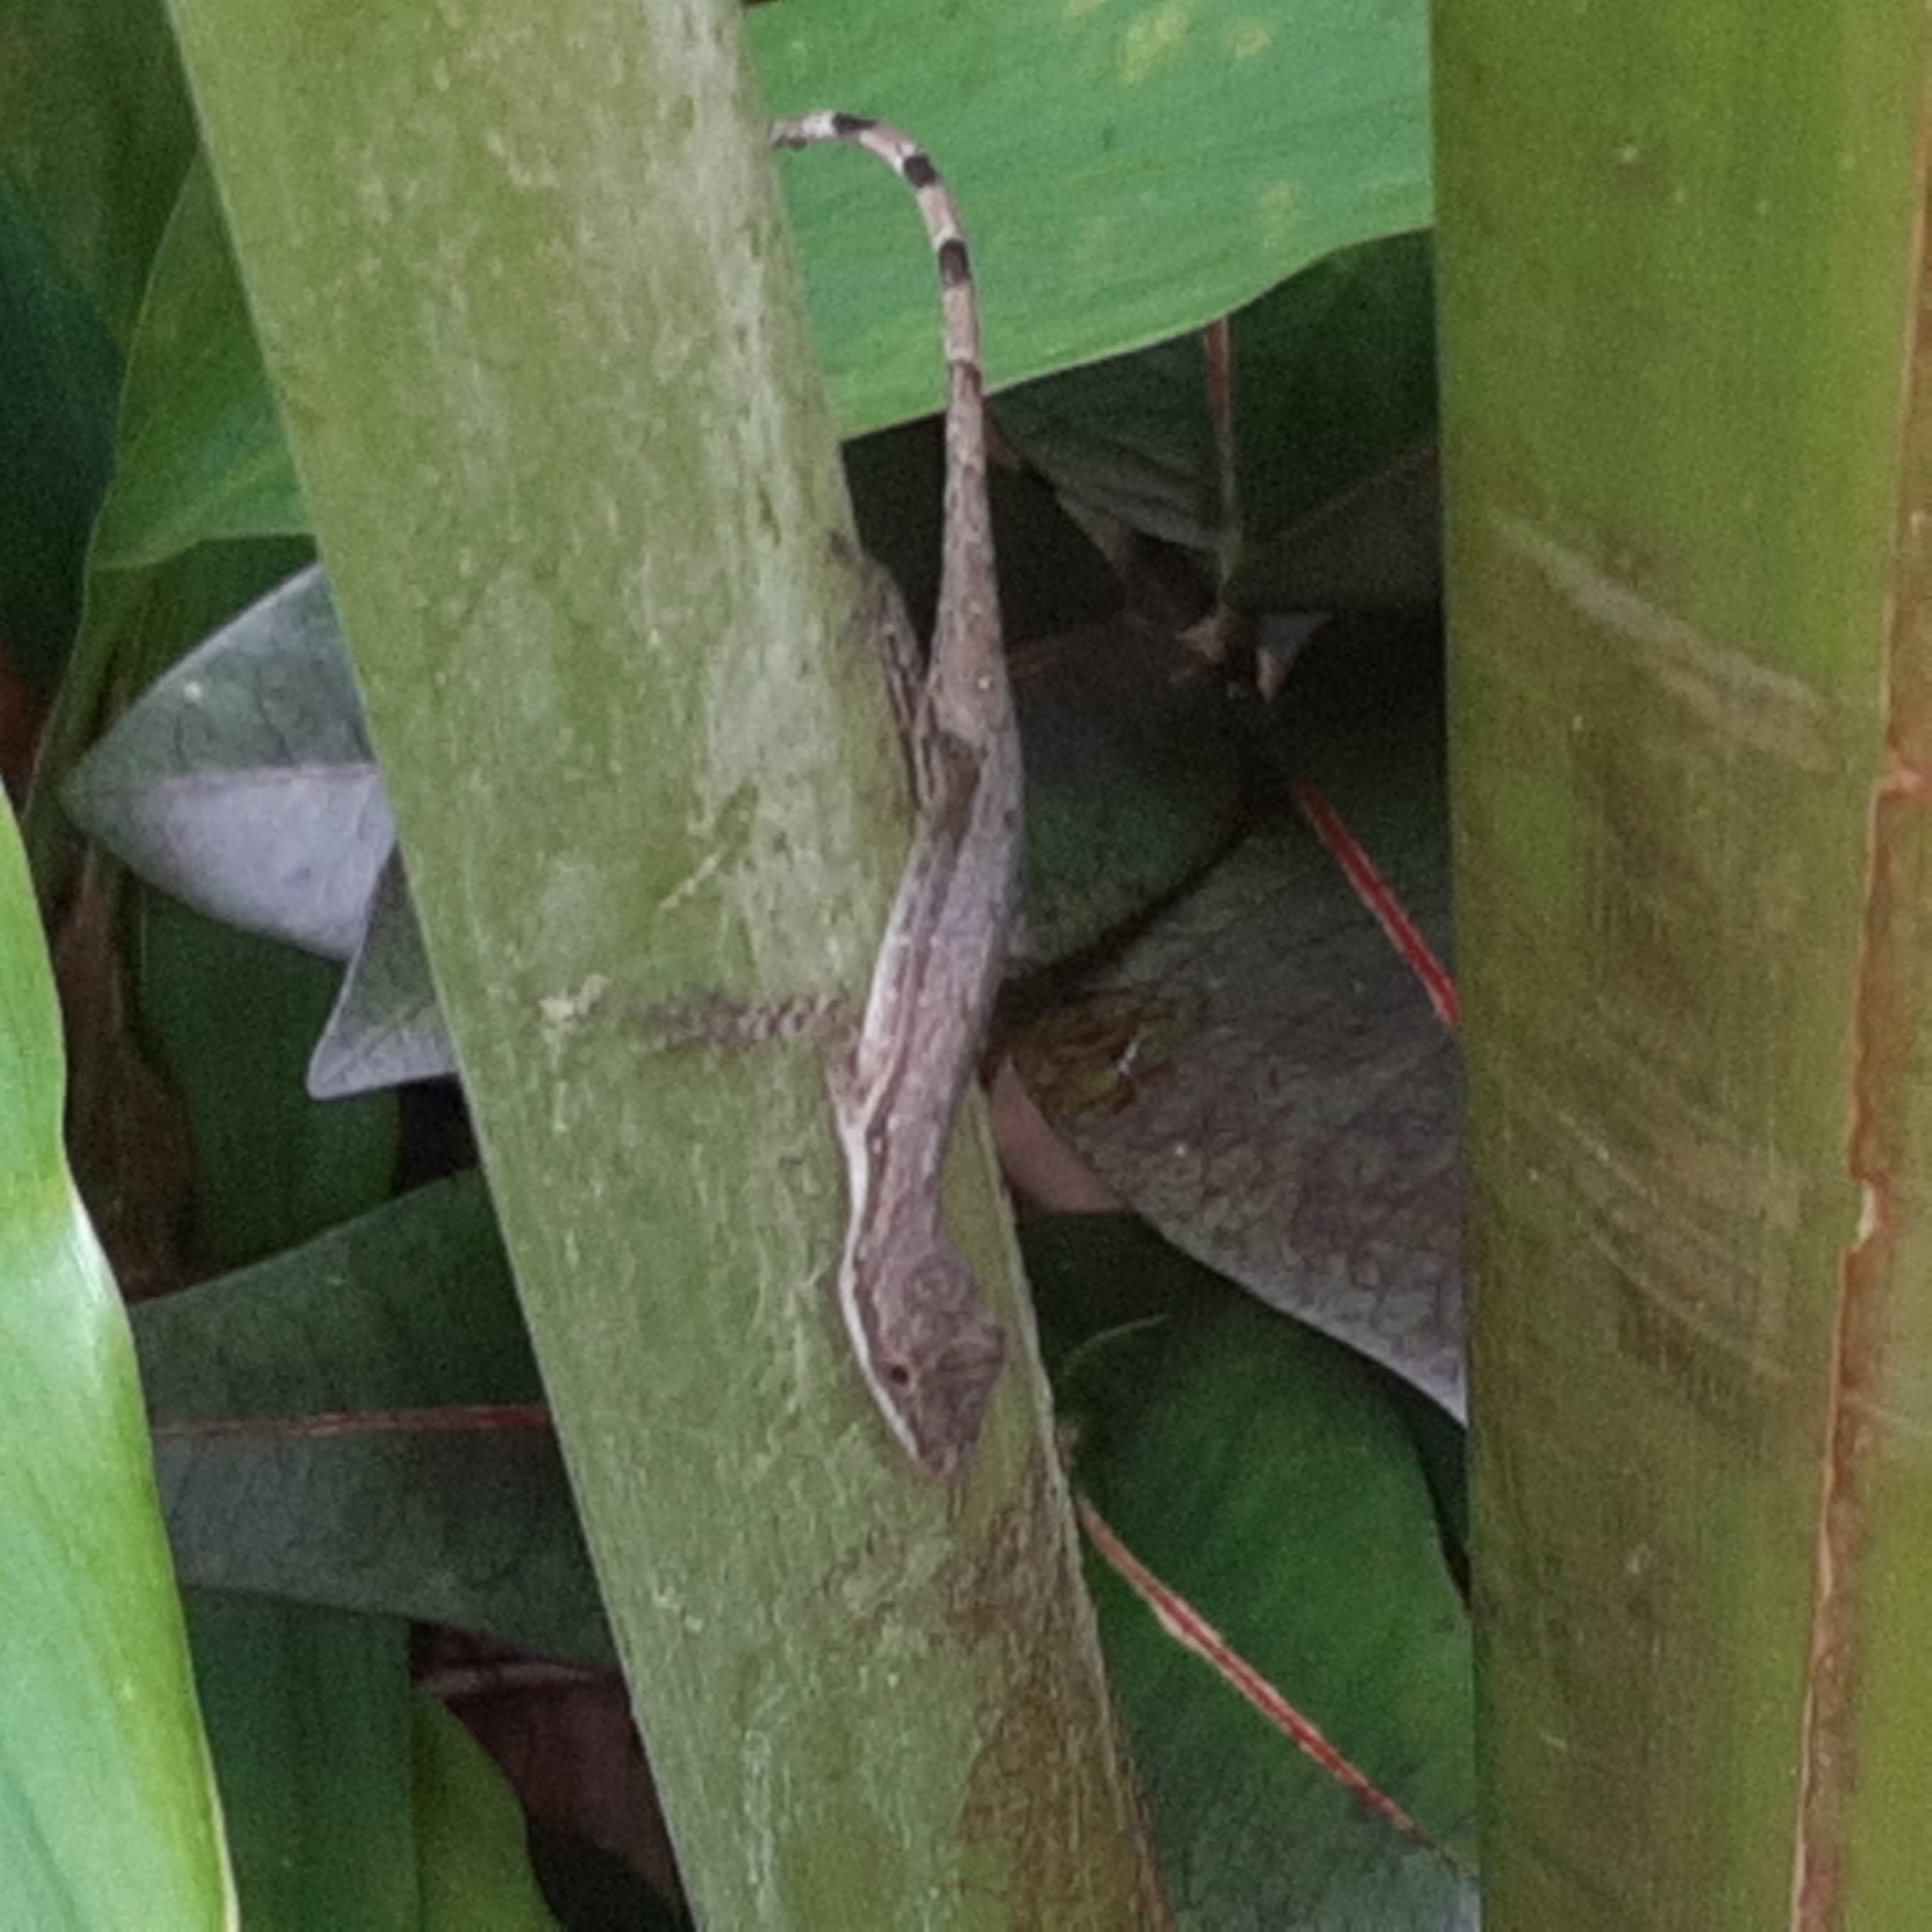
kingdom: Animalia
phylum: Chordata
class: Squamata
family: Dactyloidae
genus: Anolis
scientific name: Anolis limifrons
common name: Border anole
